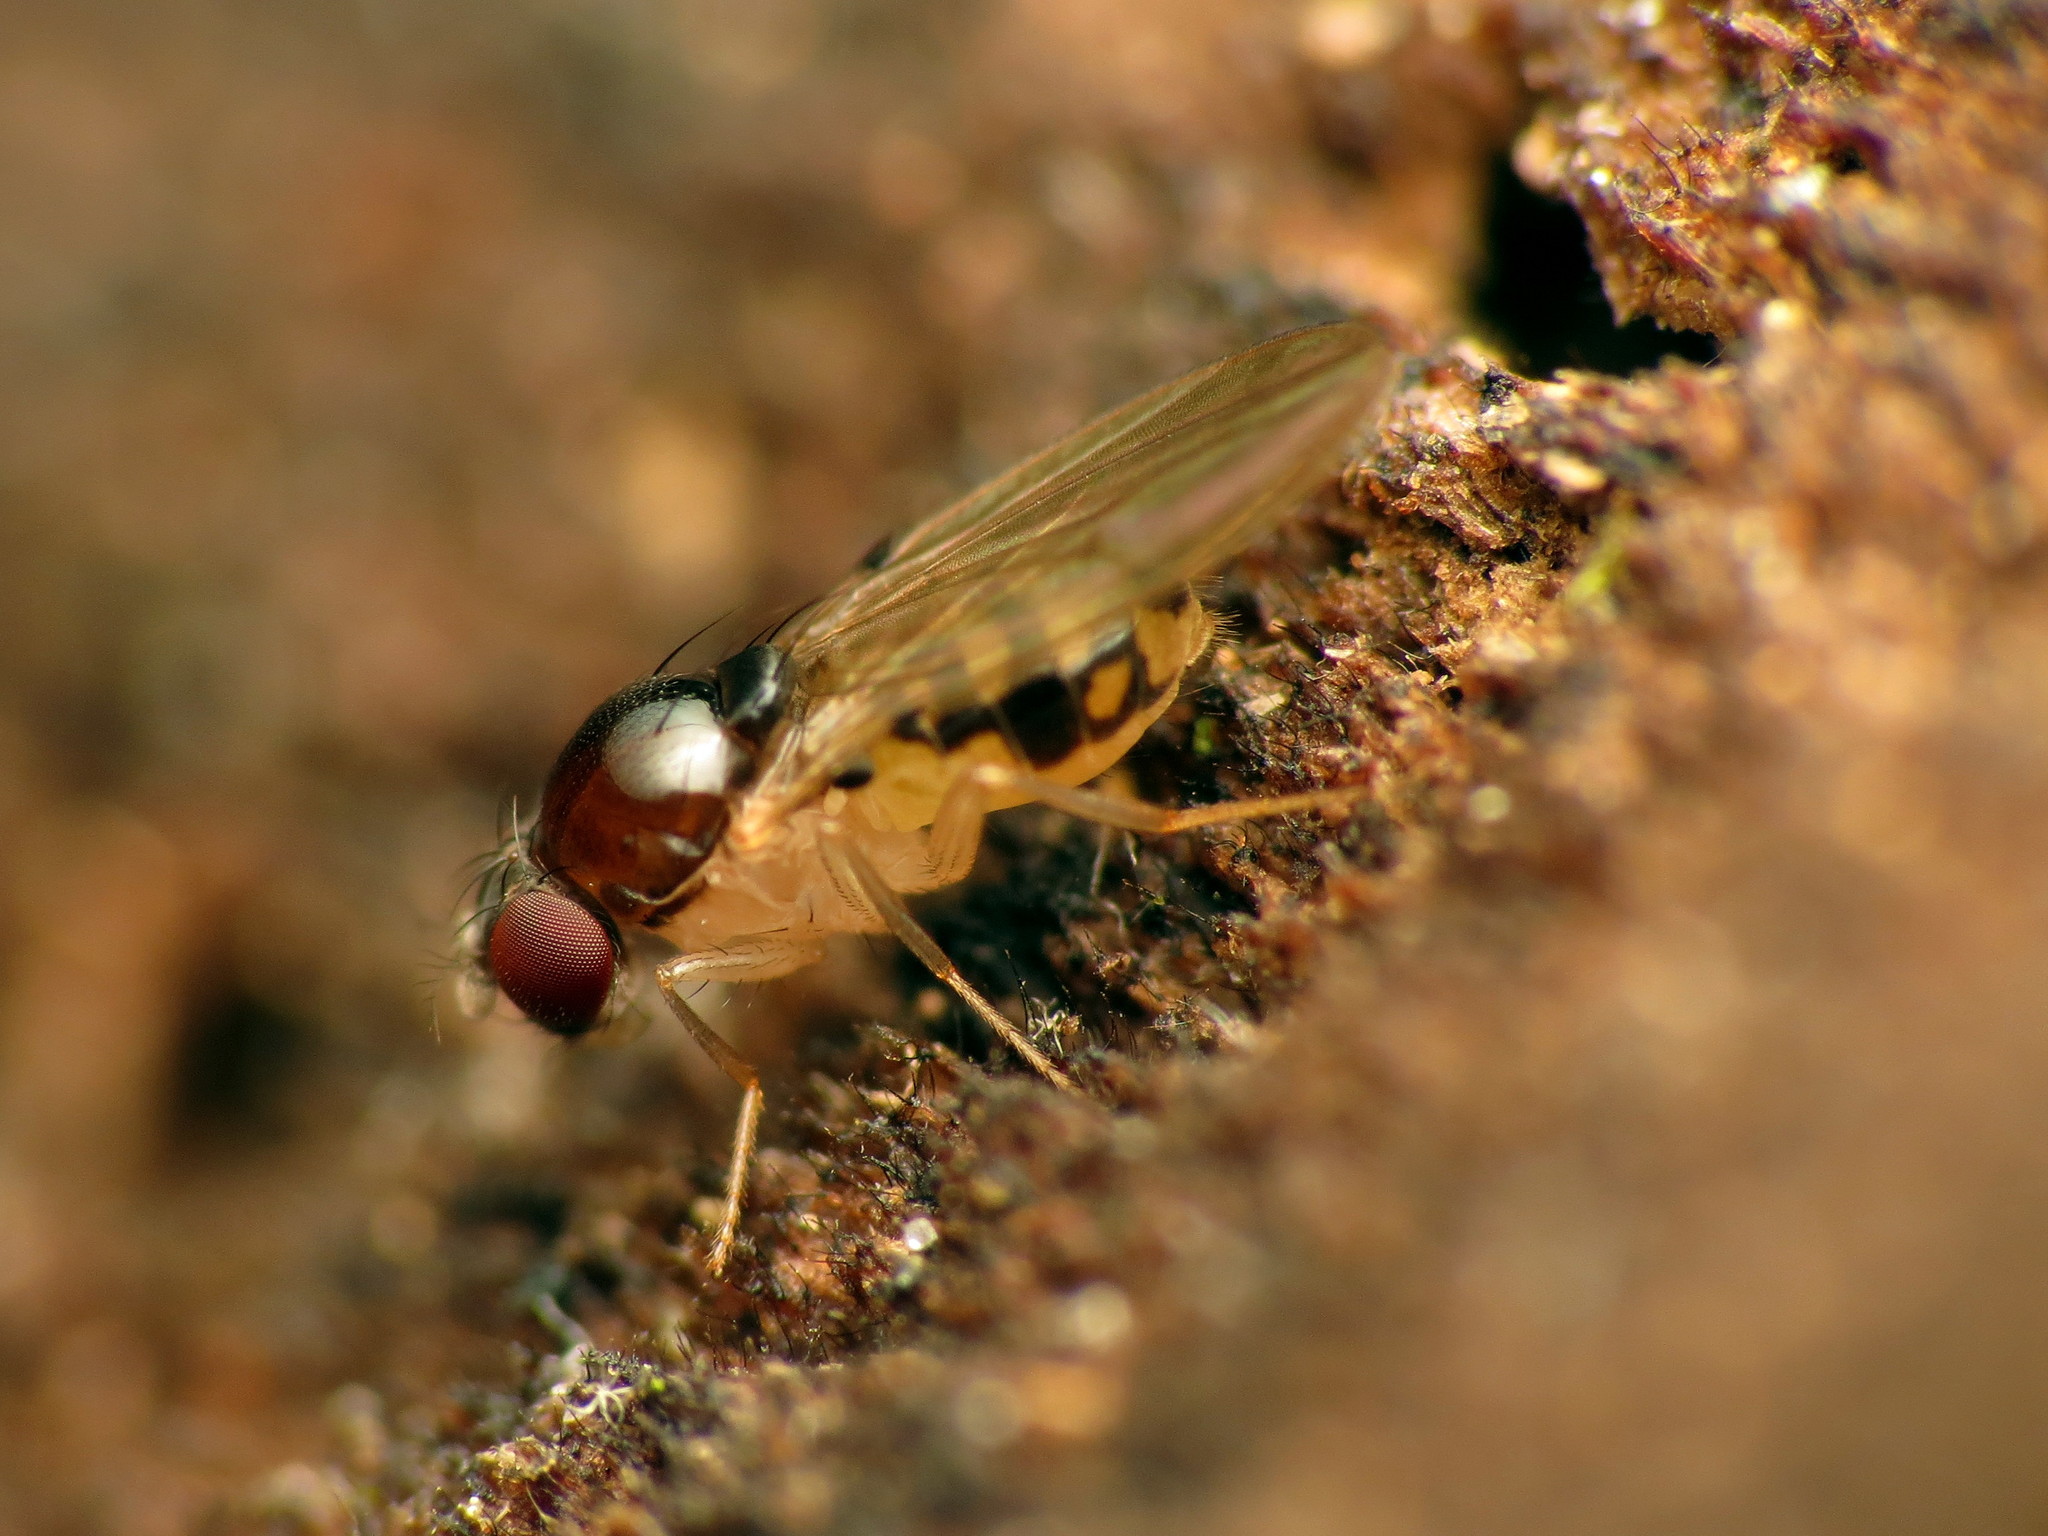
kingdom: Animalia
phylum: Arthropoda
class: Insecta
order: Diptera
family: Drosophilidae
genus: Mycodrosophila
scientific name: Mycodrosophila claytonae
